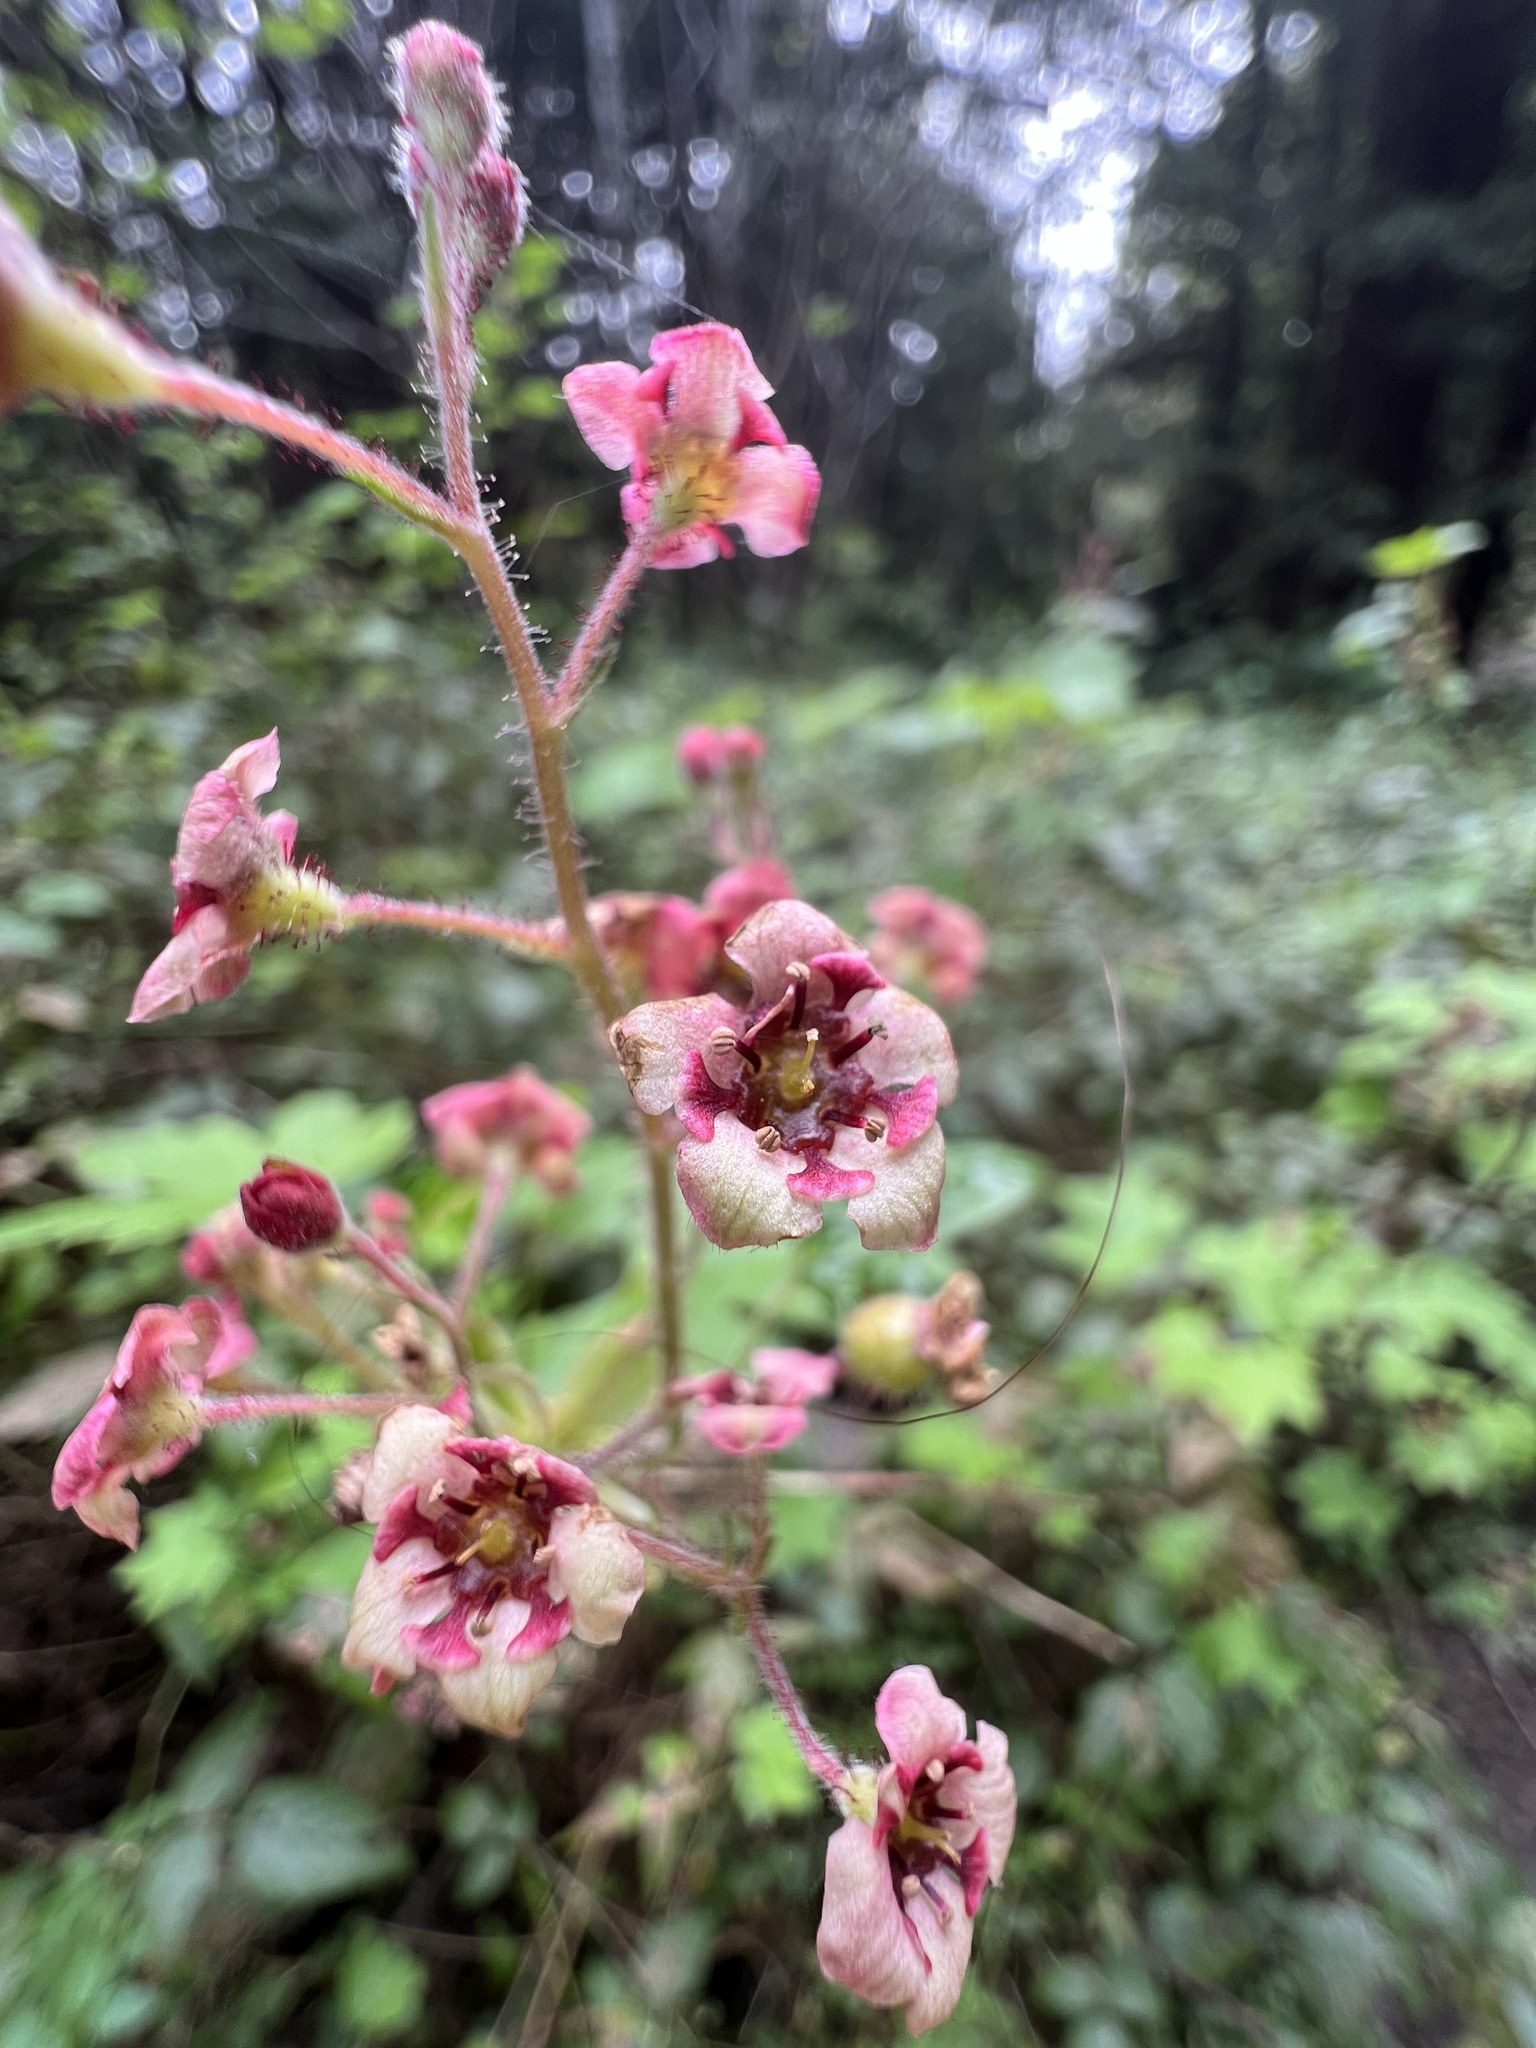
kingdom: Plantae
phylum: Tracheophyta
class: Magnoliopsida
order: Saxifragales
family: Grossulariaceae
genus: Ribes
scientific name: Ribes laxiflorum
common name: Spreading currant
